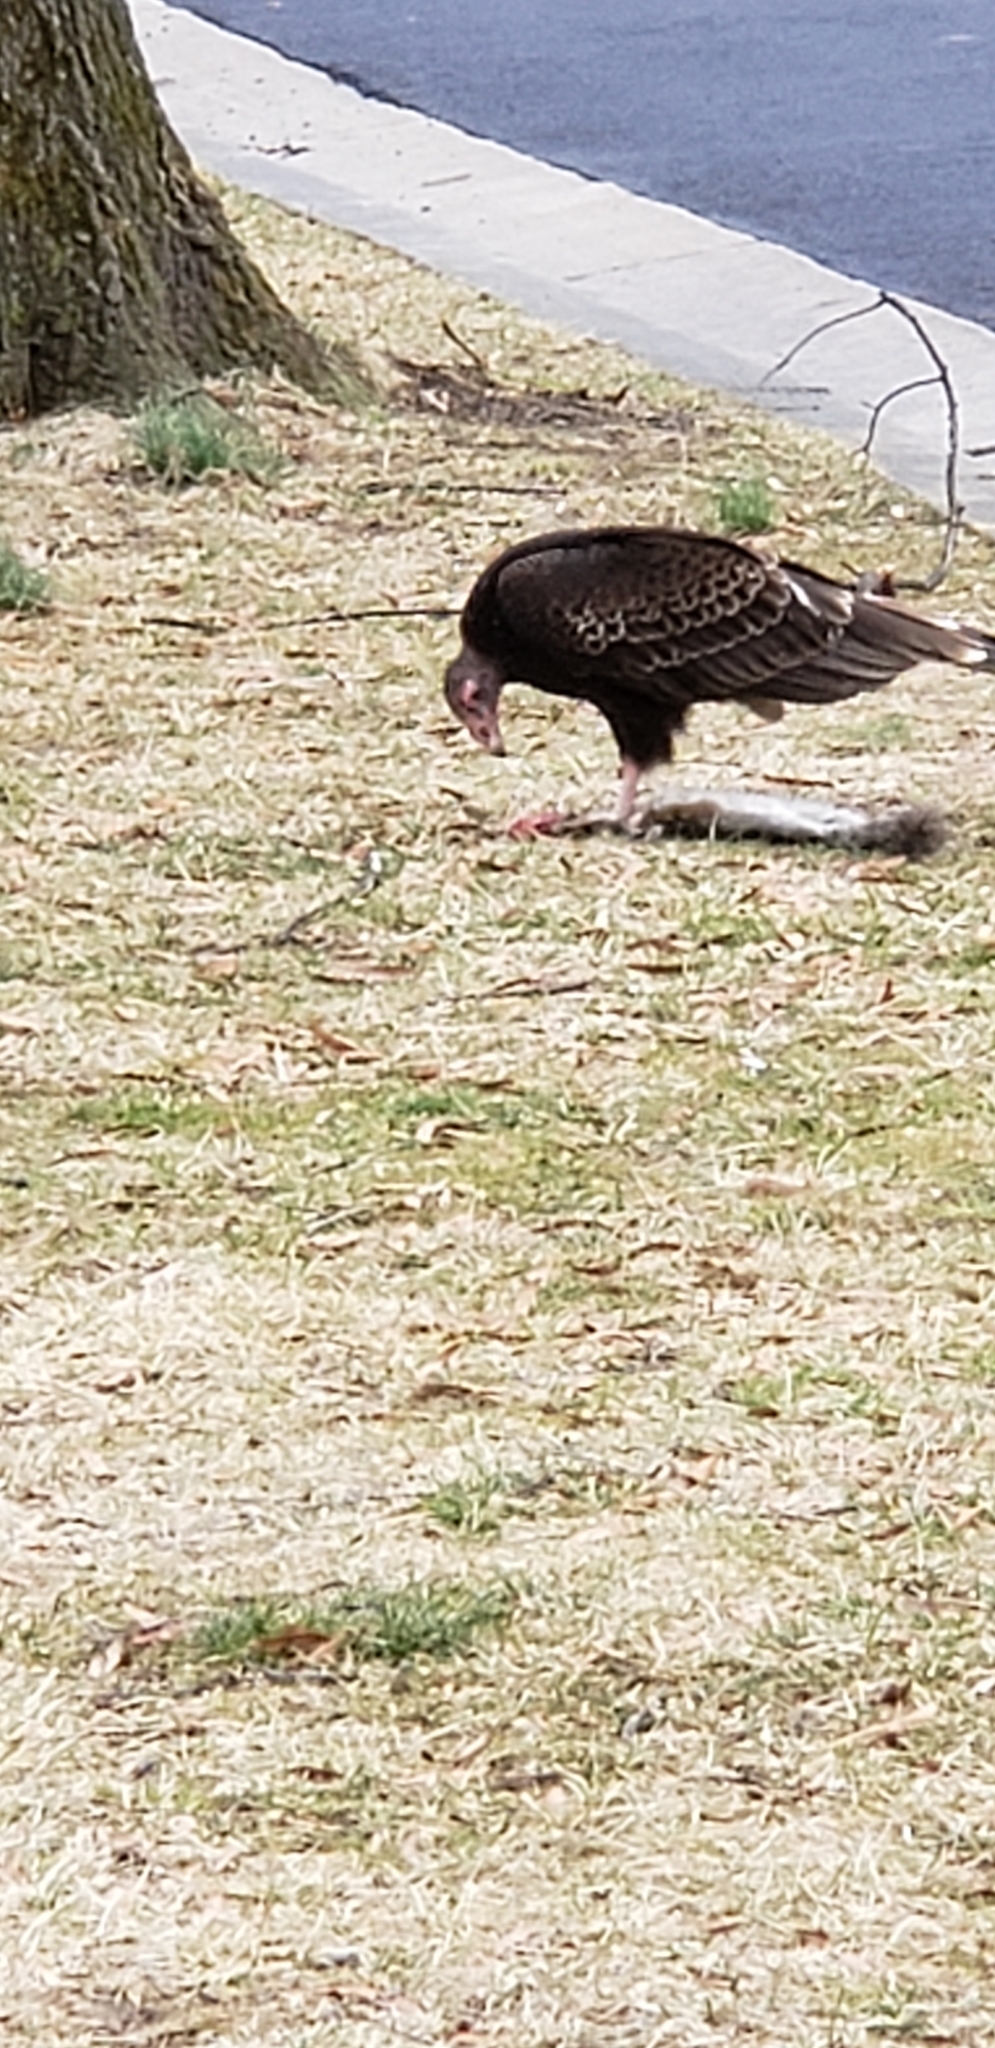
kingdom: Animalia
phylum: Chordata
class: Aves
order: Accipitriformes
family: Cathartidae
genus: Cathartes
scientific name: Cathartes aura
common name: Turkey vulture
